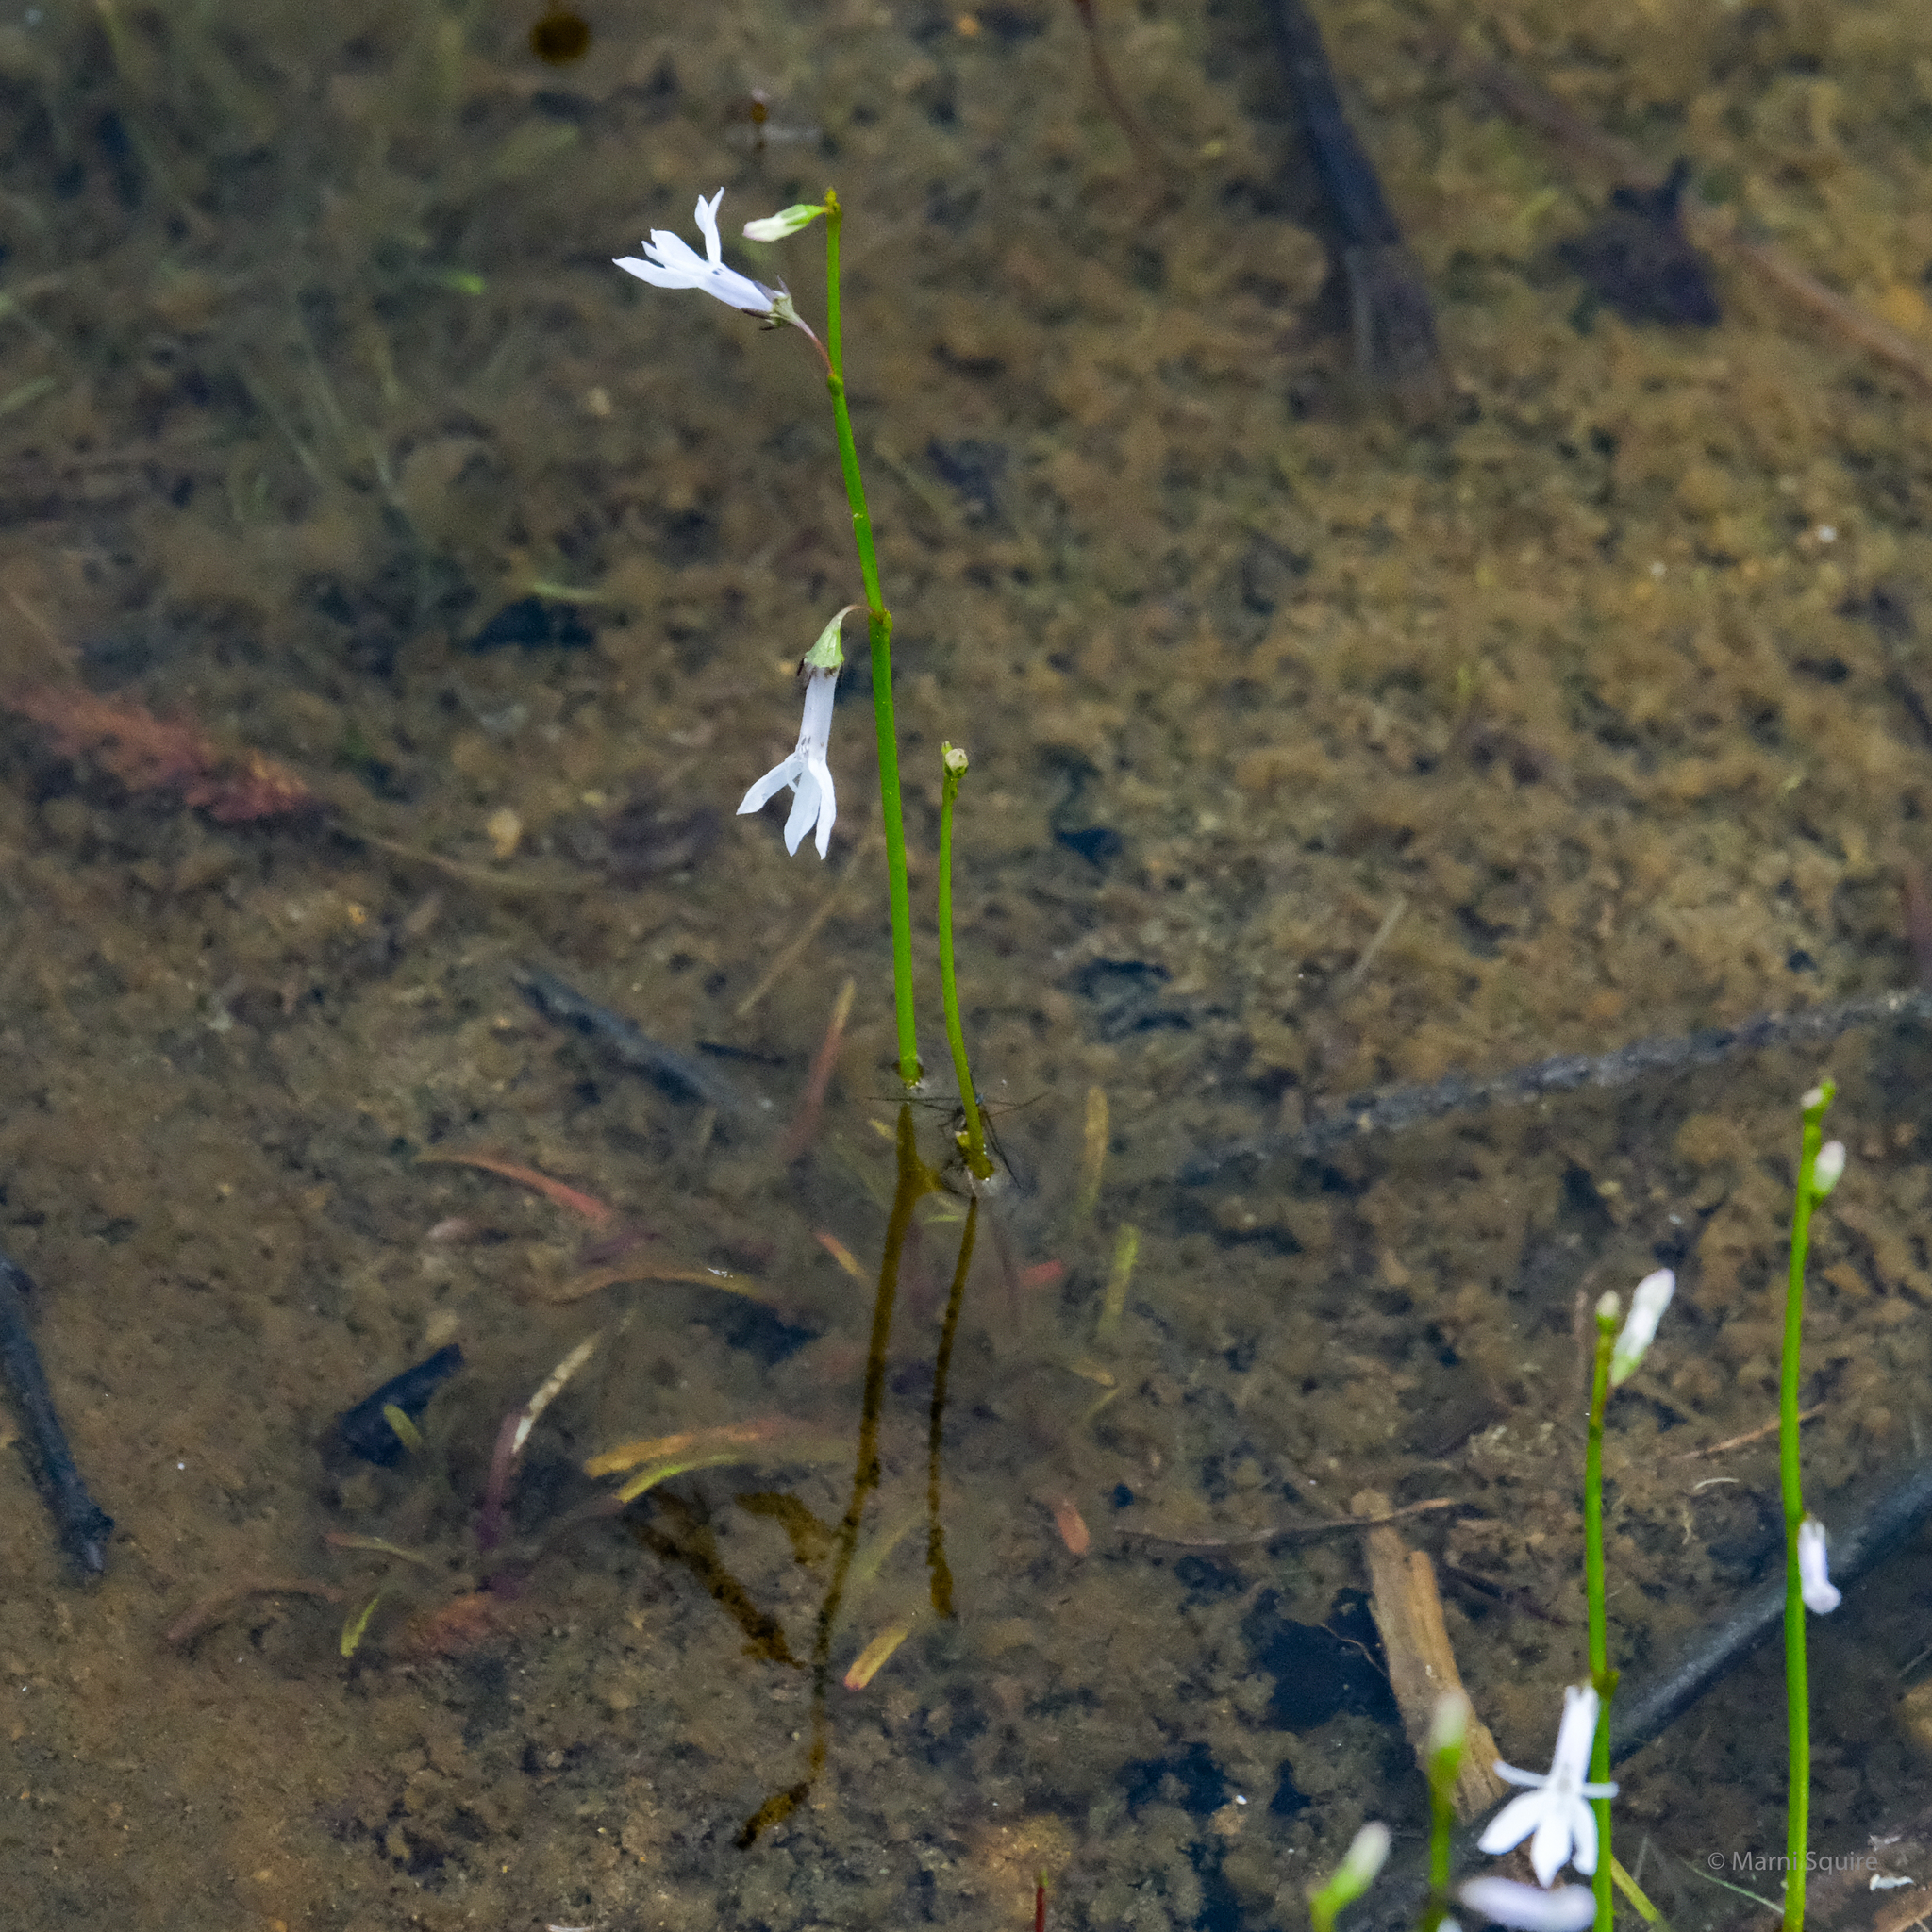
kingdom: Plantae
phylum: Tracheophyta
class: Magnoliopsida
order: Asterales
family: Campanulaceae
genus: Lobelia
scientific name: Lobelia dortmanna
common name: Water lobelia
